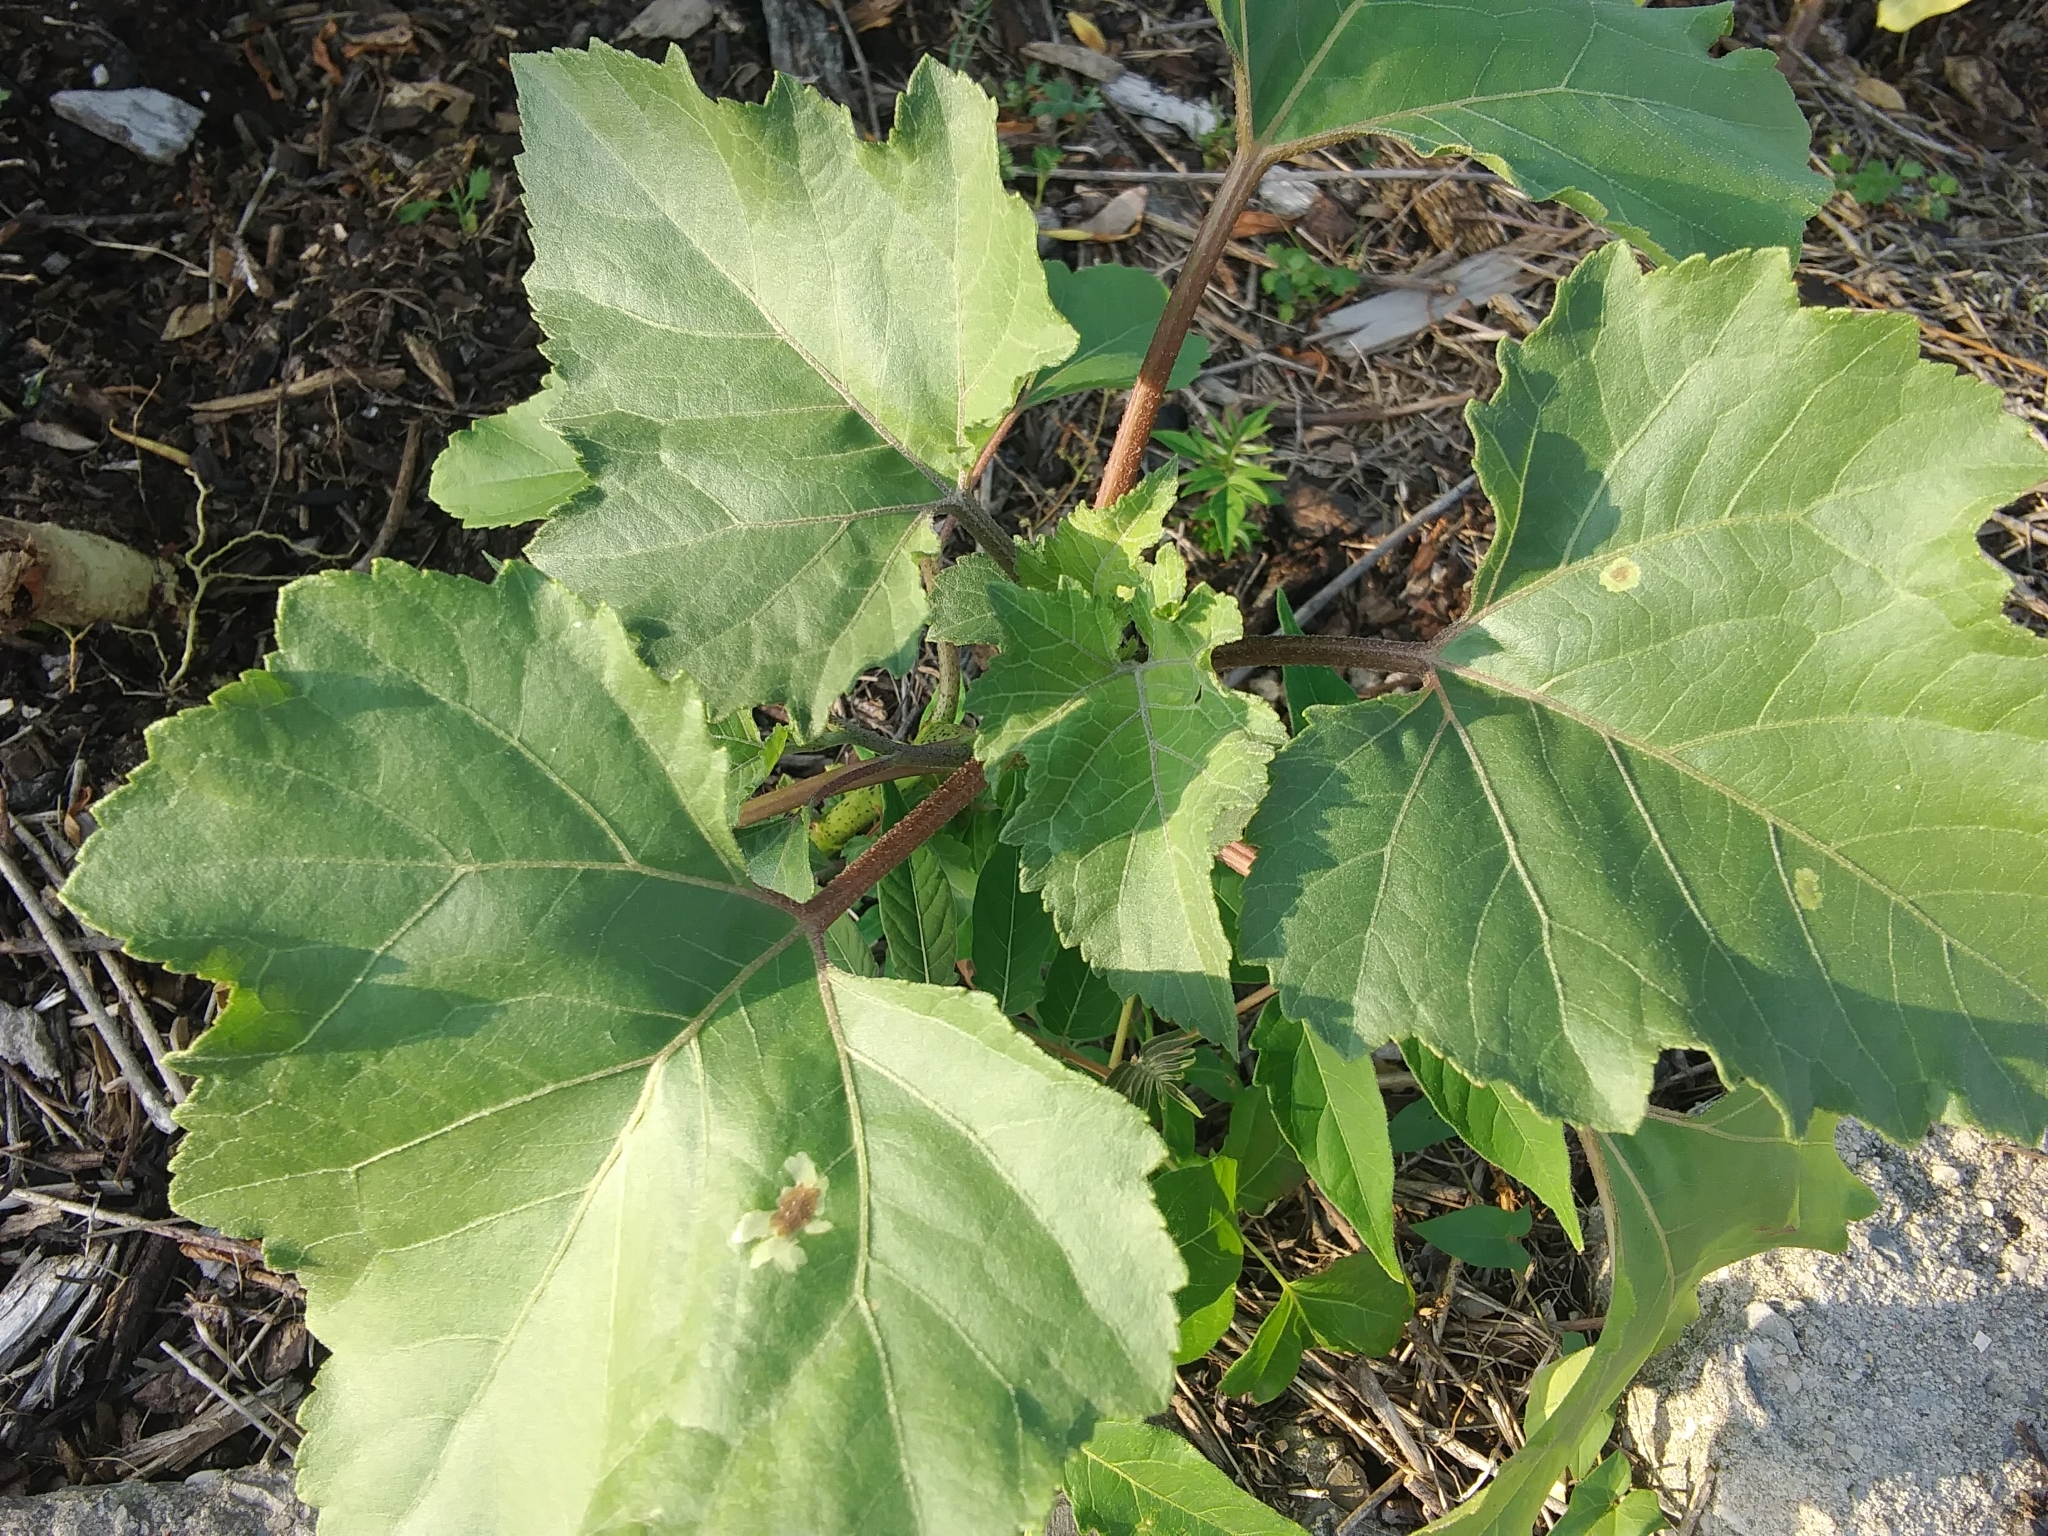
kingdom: Plantae
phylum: Tracheophyta
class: Magnoliopsida
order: Asterales
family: Asteraceae
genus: Xanthium
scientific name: Xanthium strumarium
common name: Rough cocklebur
